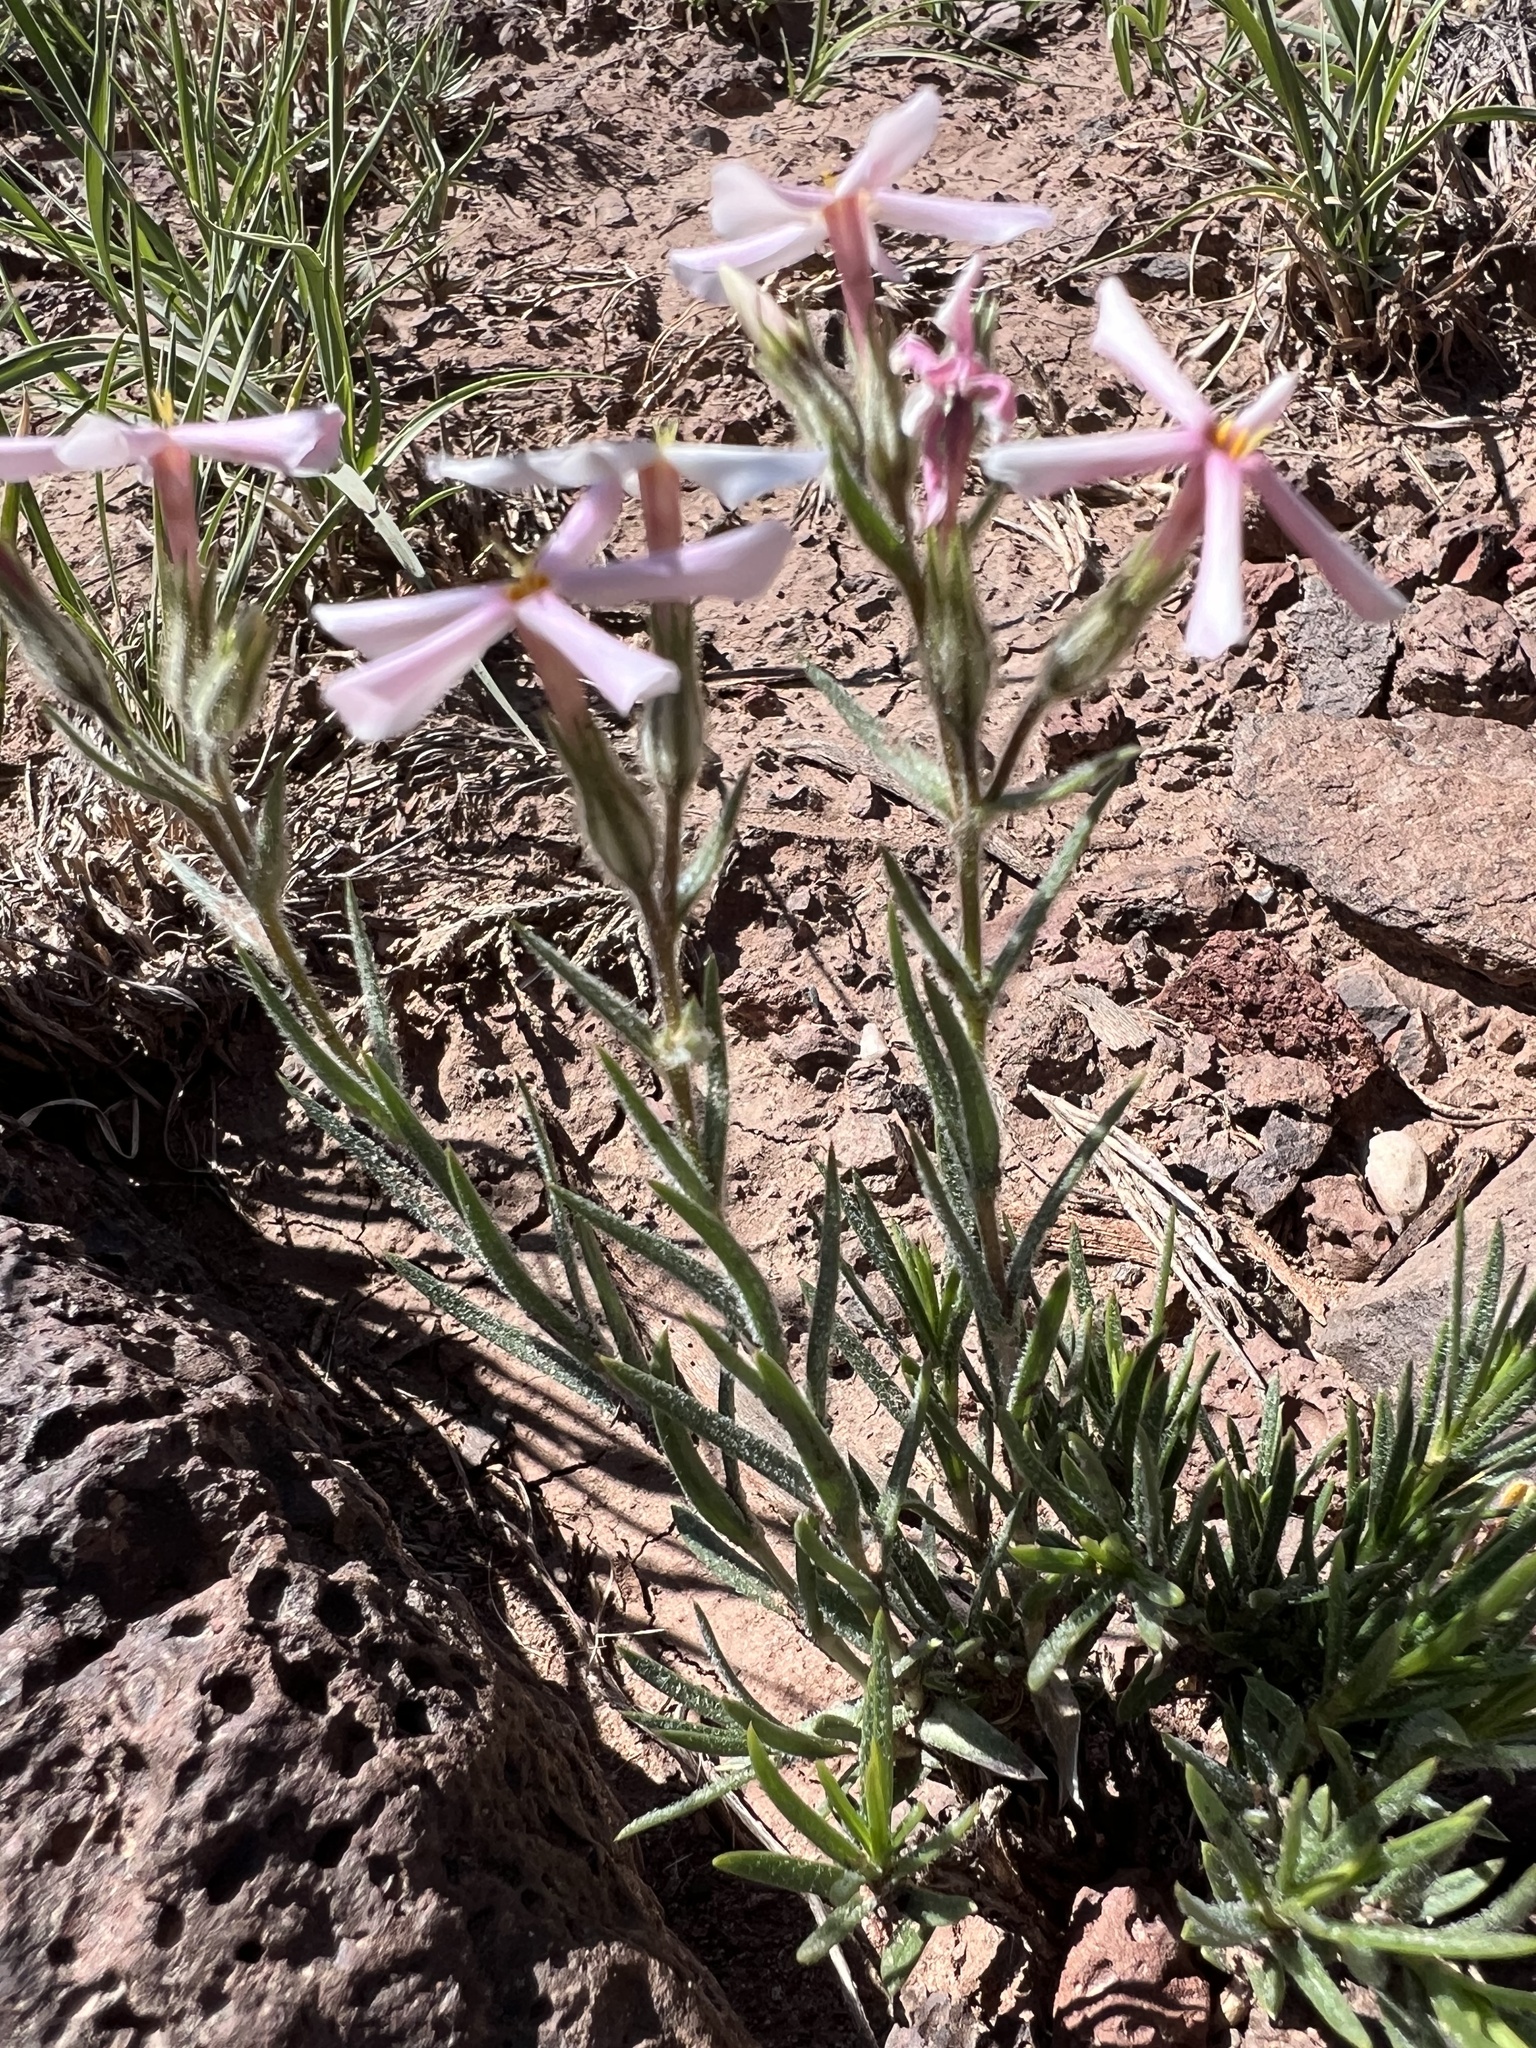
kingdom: Plantae
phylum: Tracheophyta
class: Magnoliopsida
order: Ericales
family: Polemoniaceae
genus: Phlox
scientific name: Phlox longifolia
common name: Longleaf phlox
